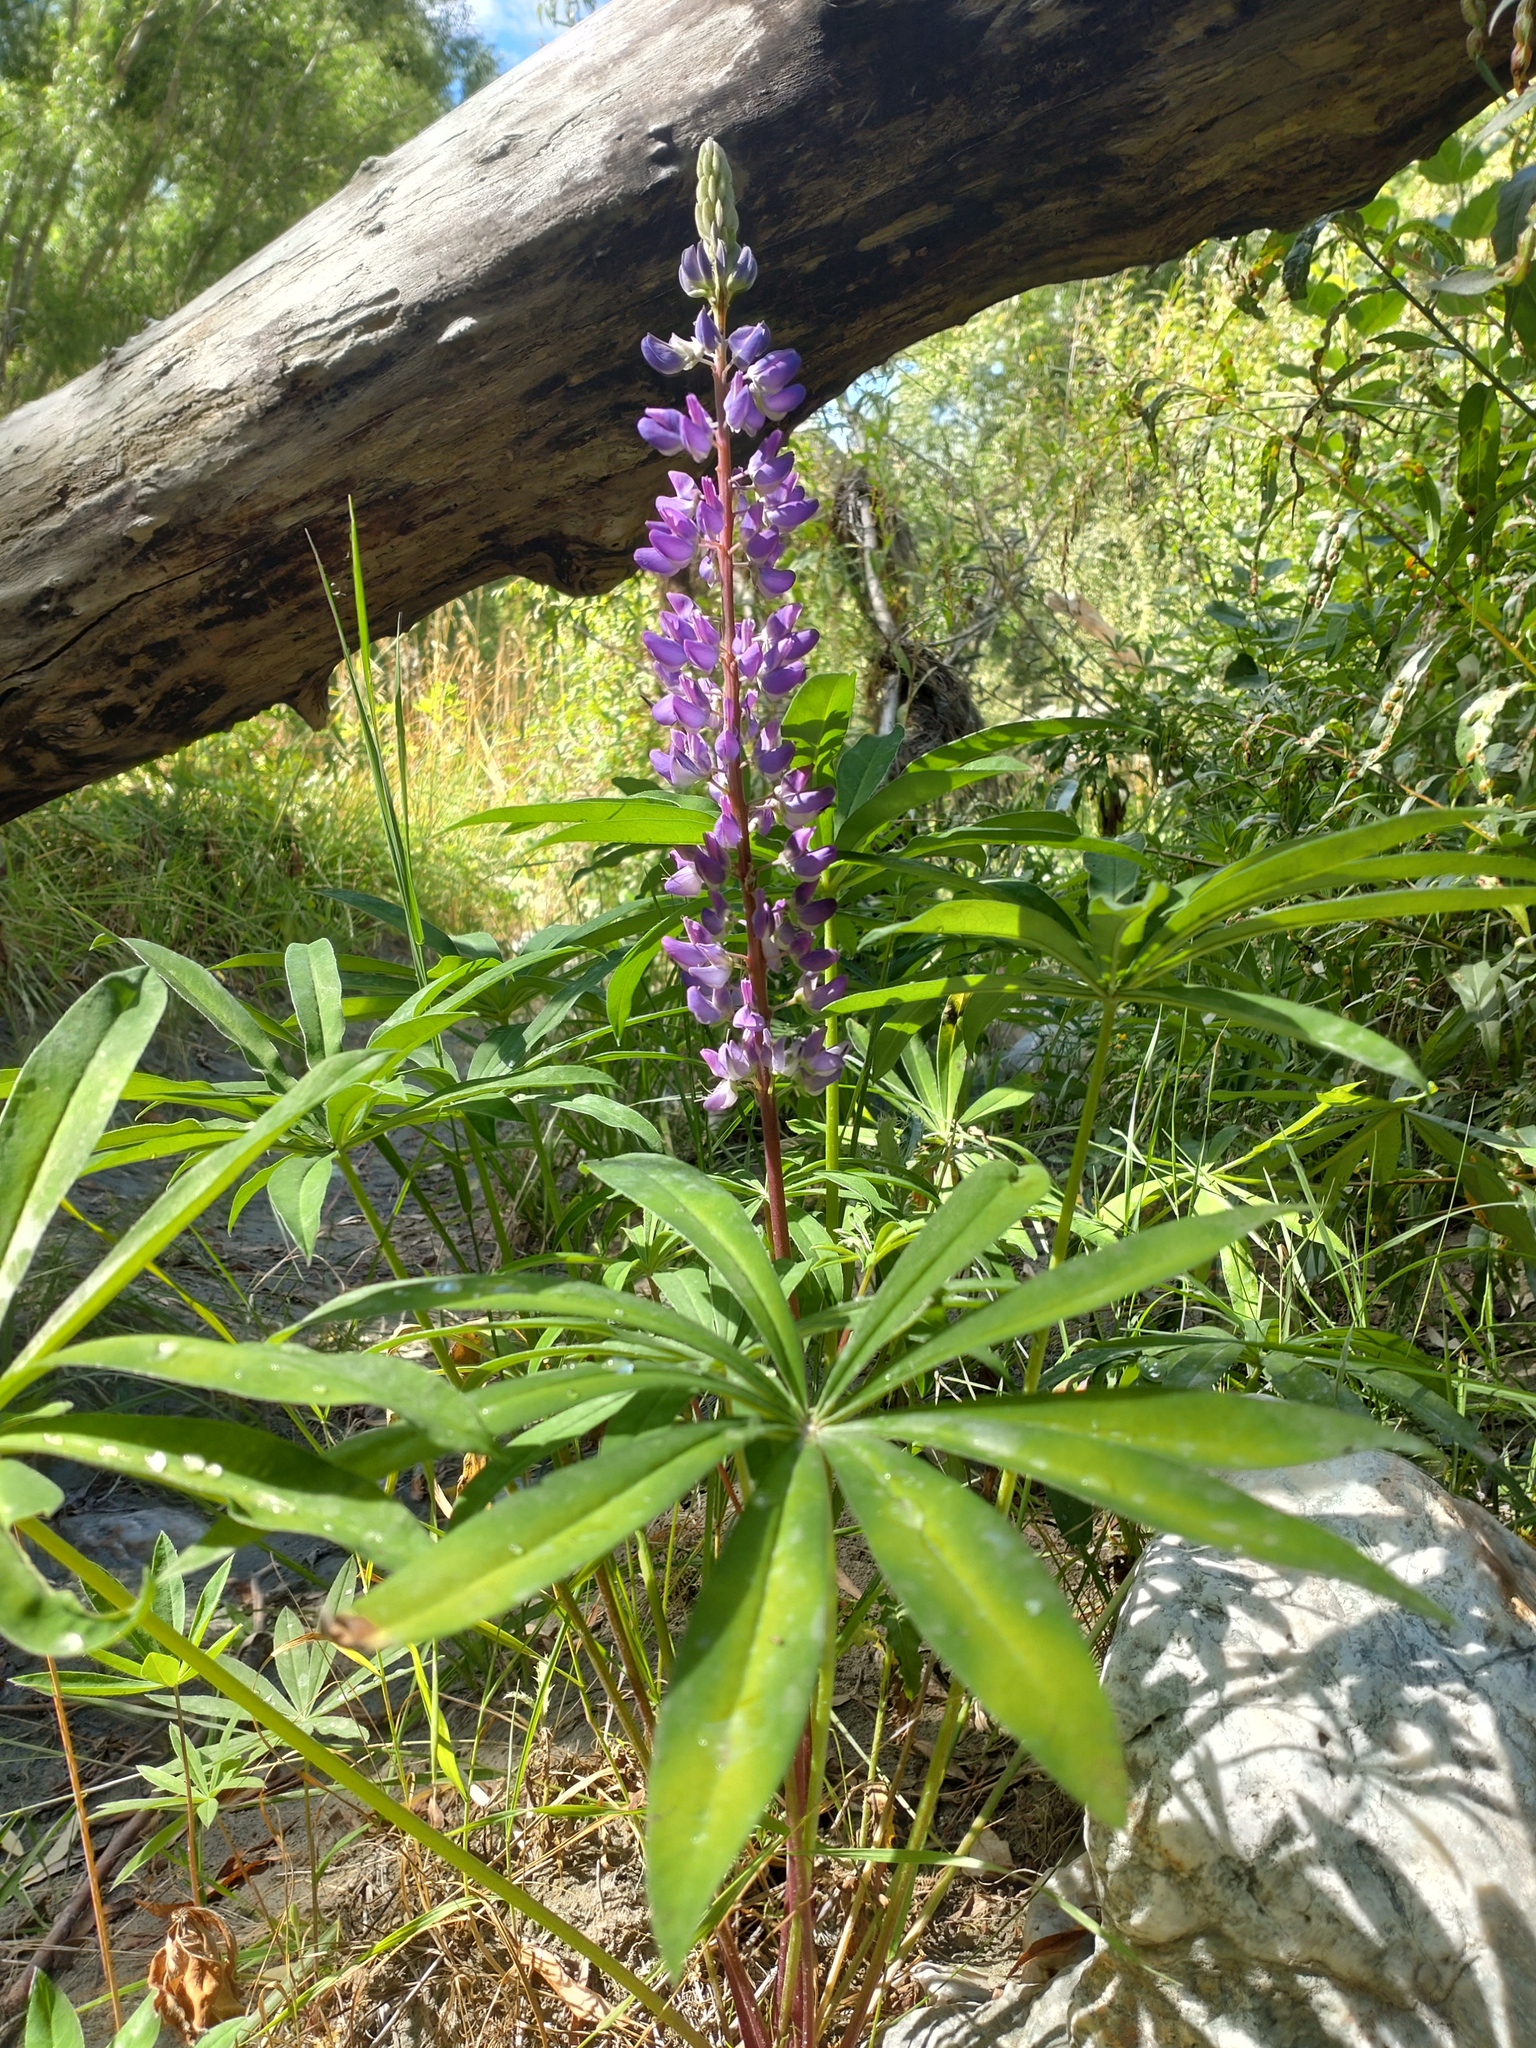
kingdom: Plantae
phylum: Tracheophyta
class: Magnoliopsida
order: Fabales
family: Fabaceae
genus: Lupinus
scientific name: Lupinus polyphyllus
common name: Garden lupin
